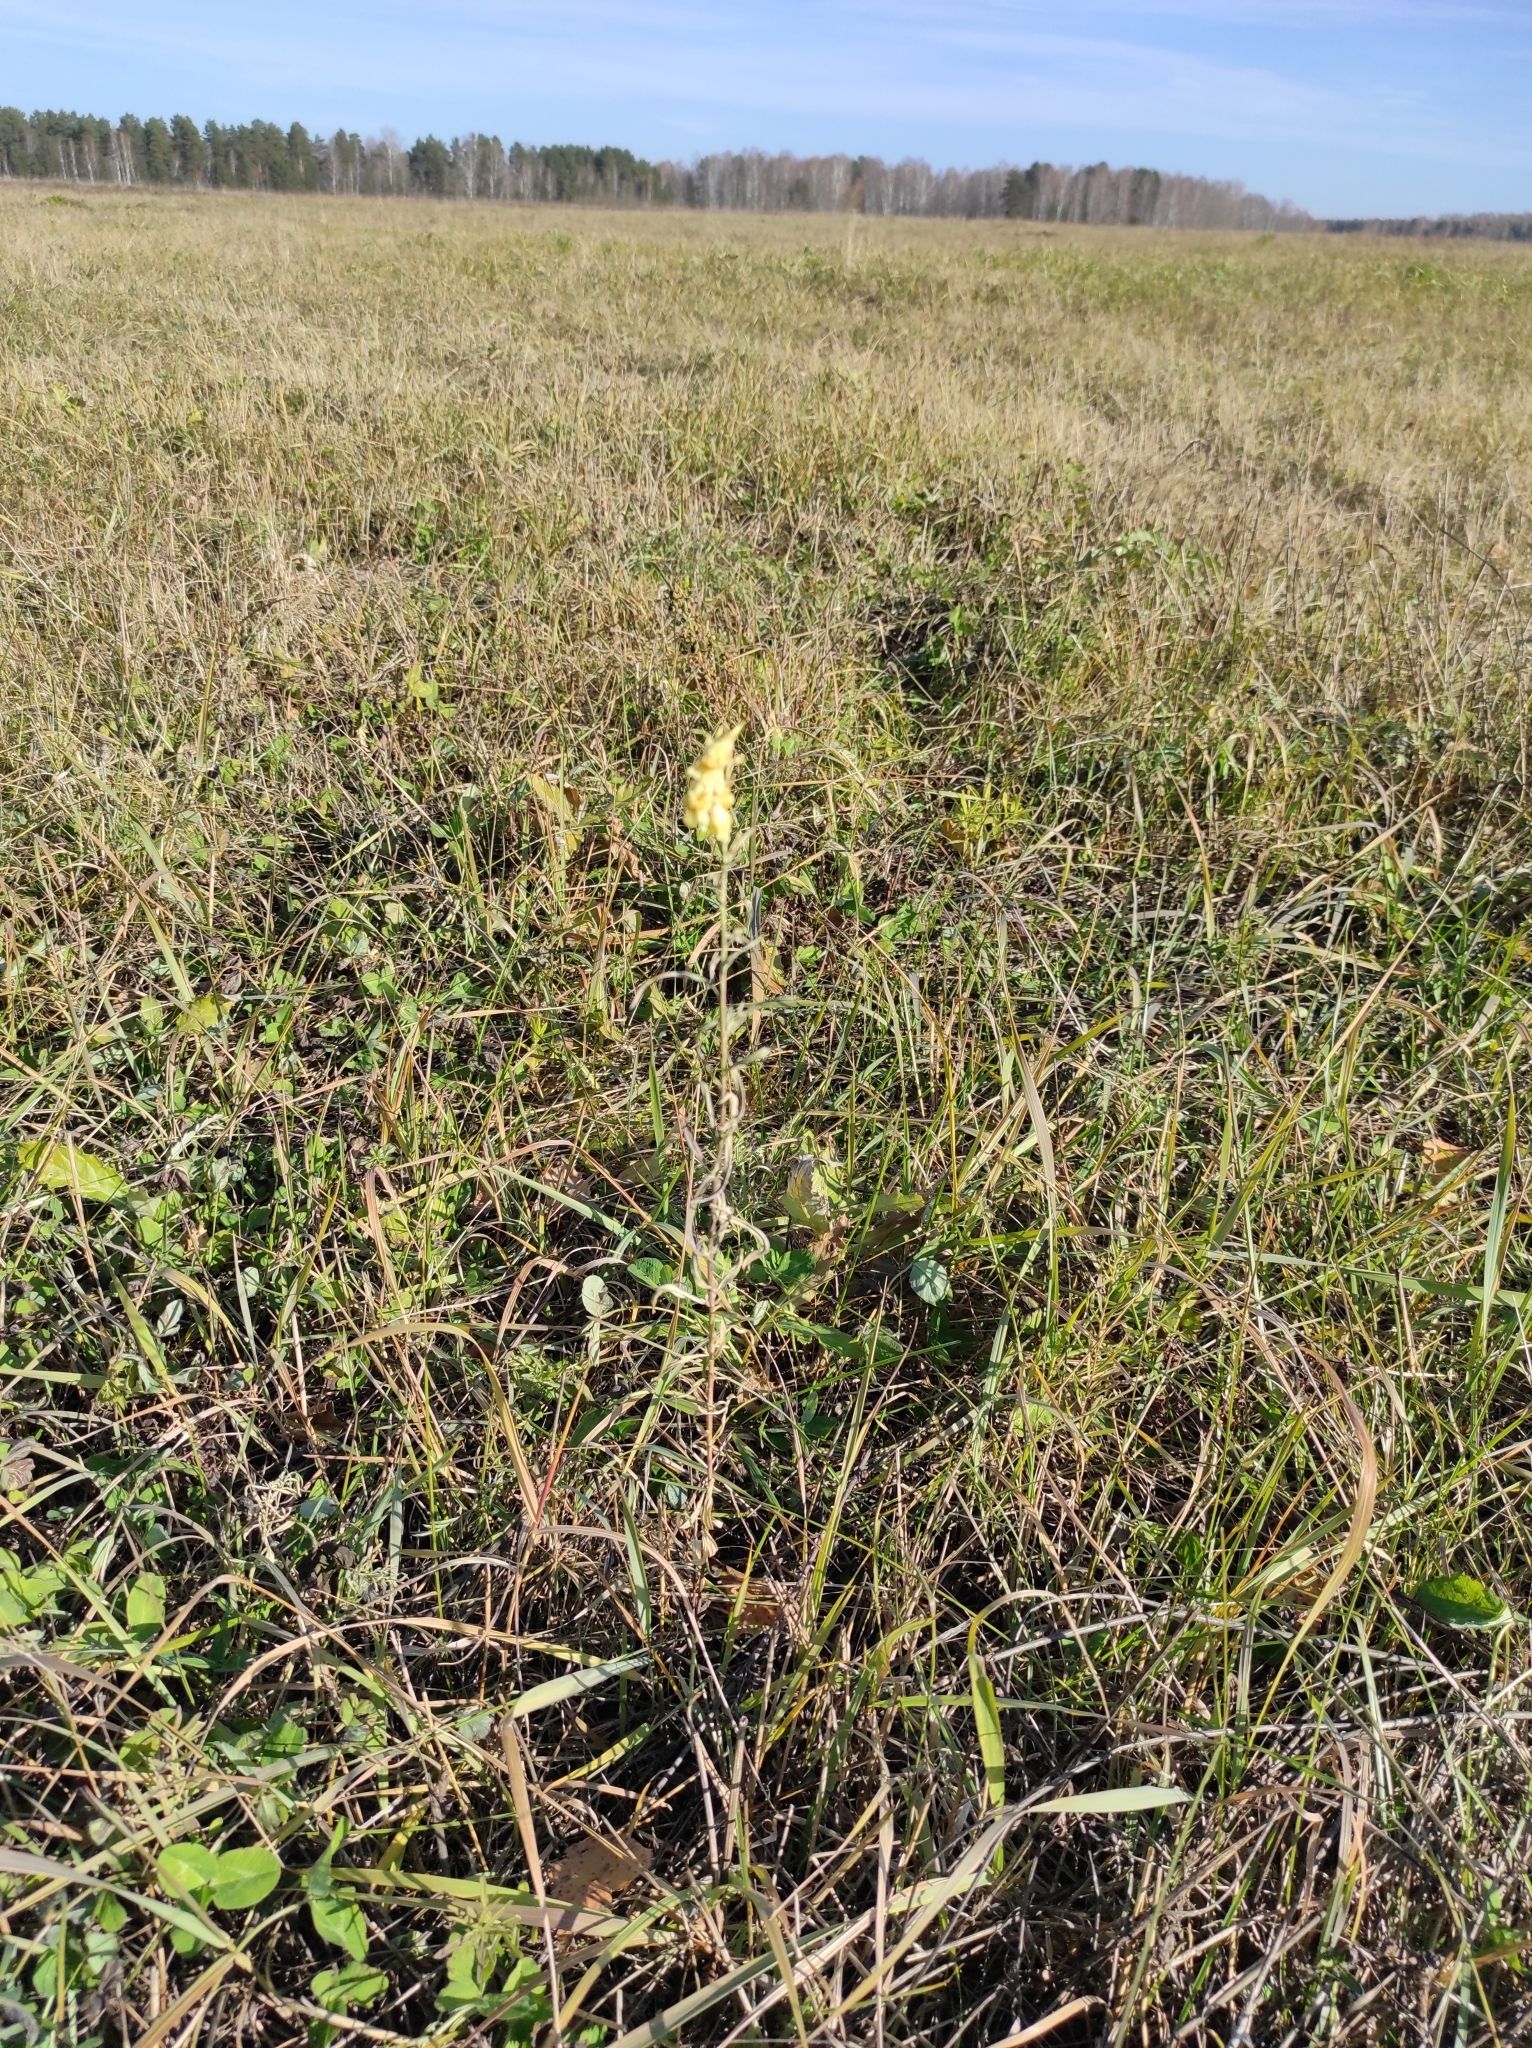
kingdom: Plantae
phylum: Tracheophyta
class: Magnoliopsida
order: Lamiales
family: Plantaginaceae
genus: Linaria
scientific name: Linaria vulgaris
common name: Butter and eggs
